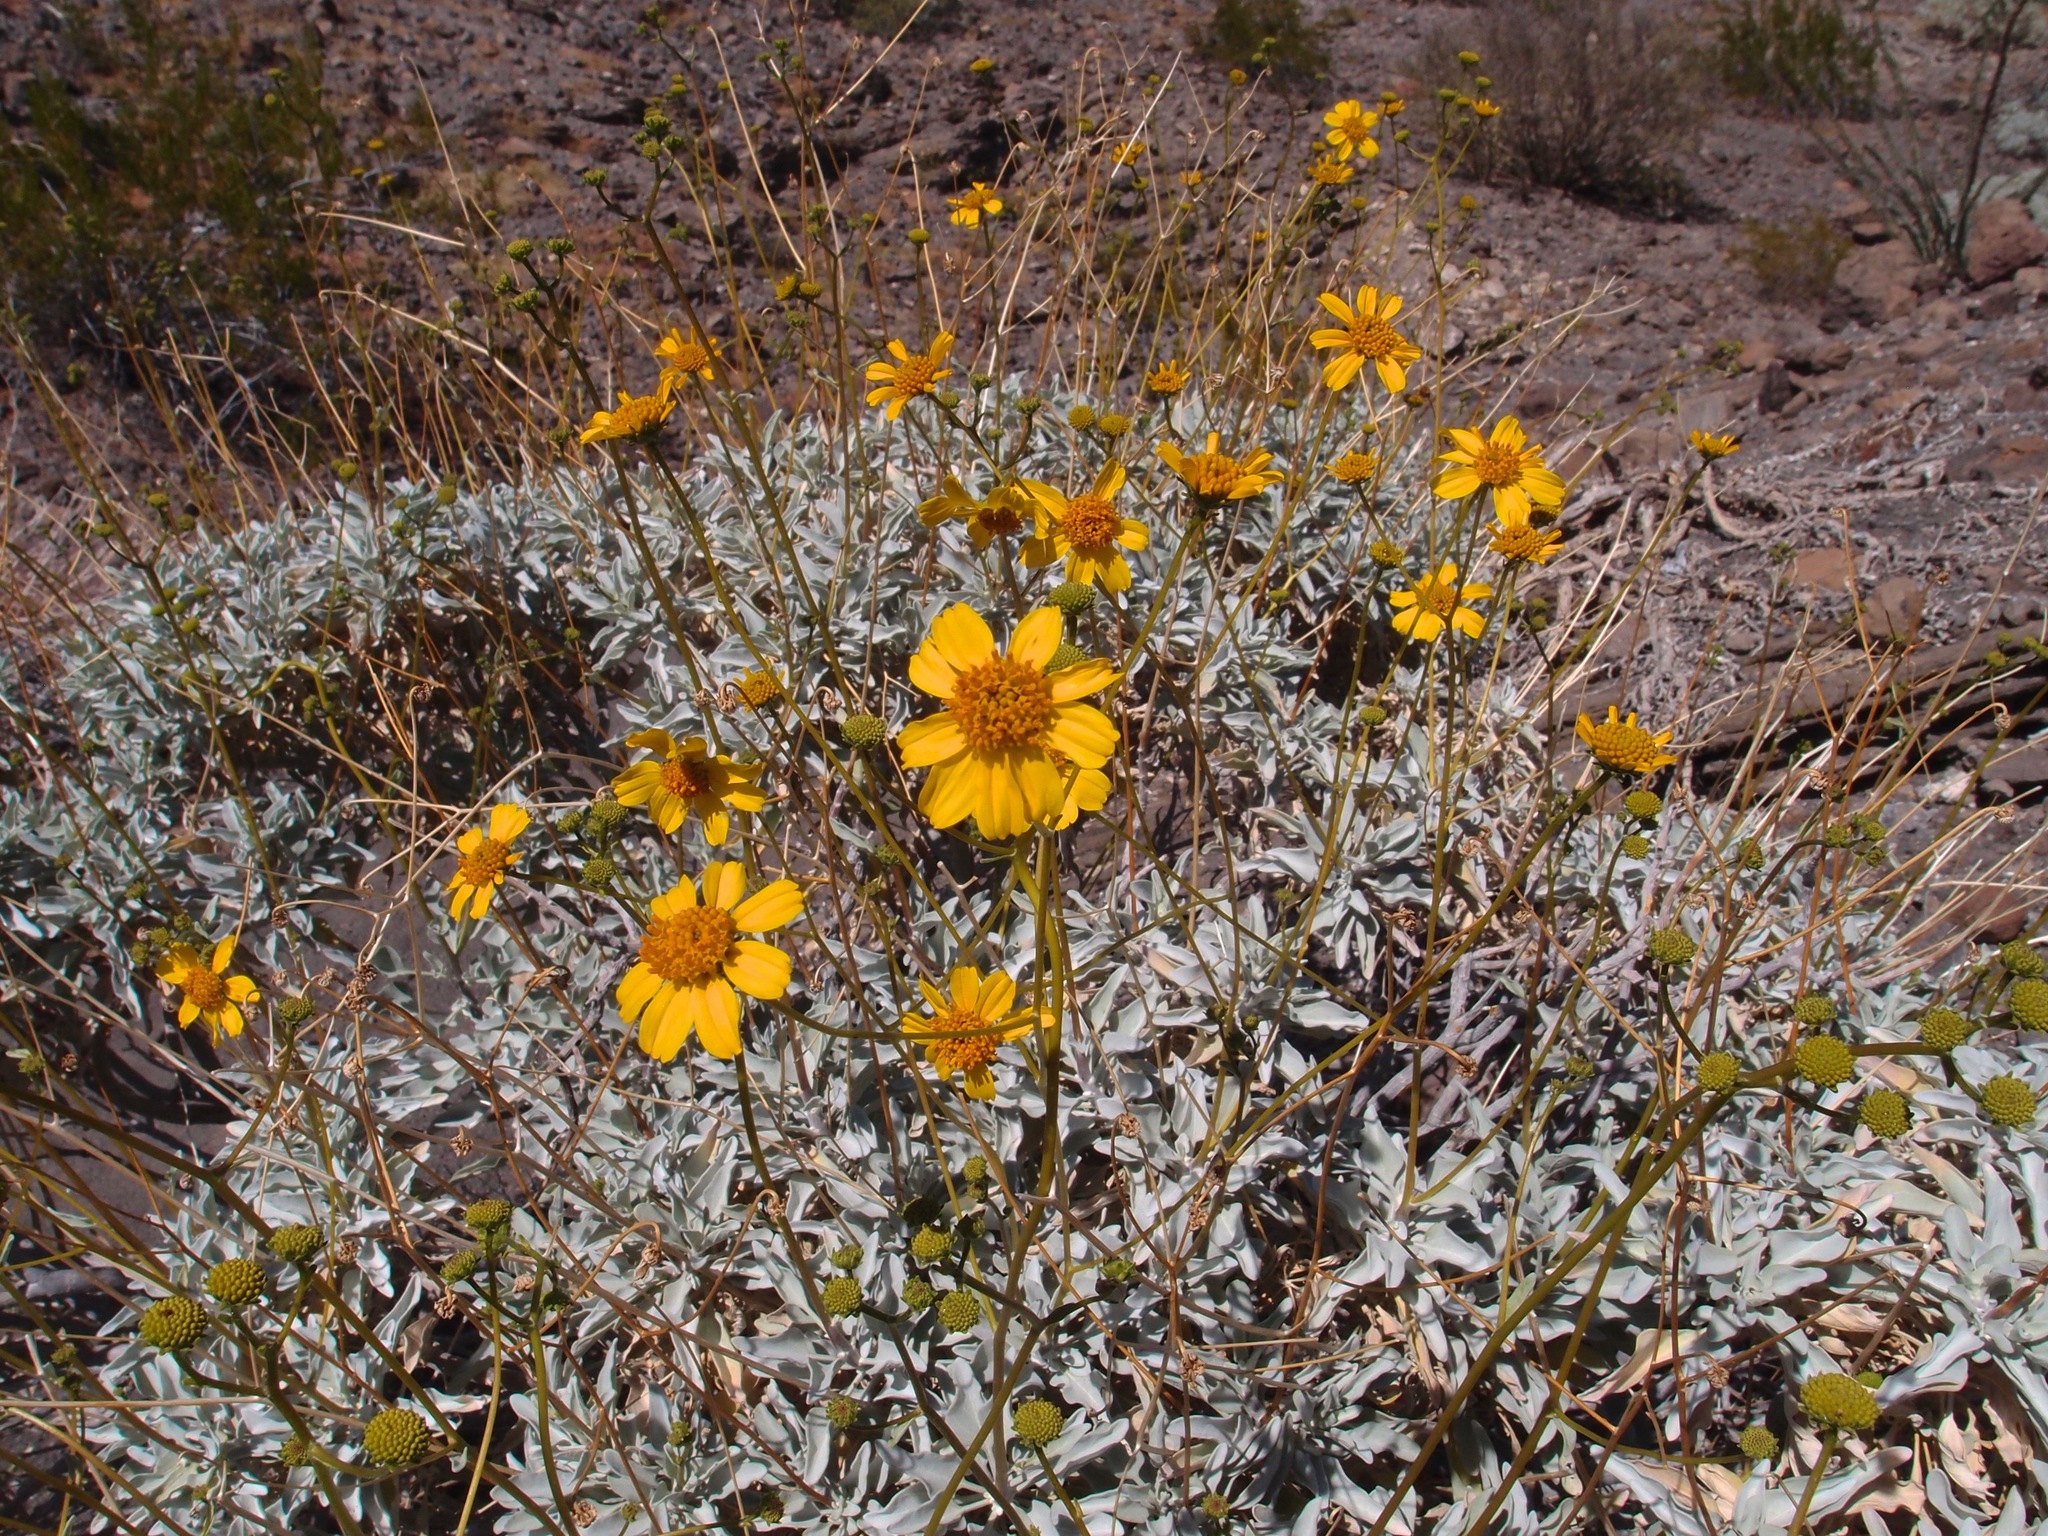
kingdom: Plantae
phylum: Tracheophyta
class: Magnoliopsida
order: Asterales
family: Asteraceae
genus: Encelia
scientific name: Encelia farinosa
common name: Brittlebush
